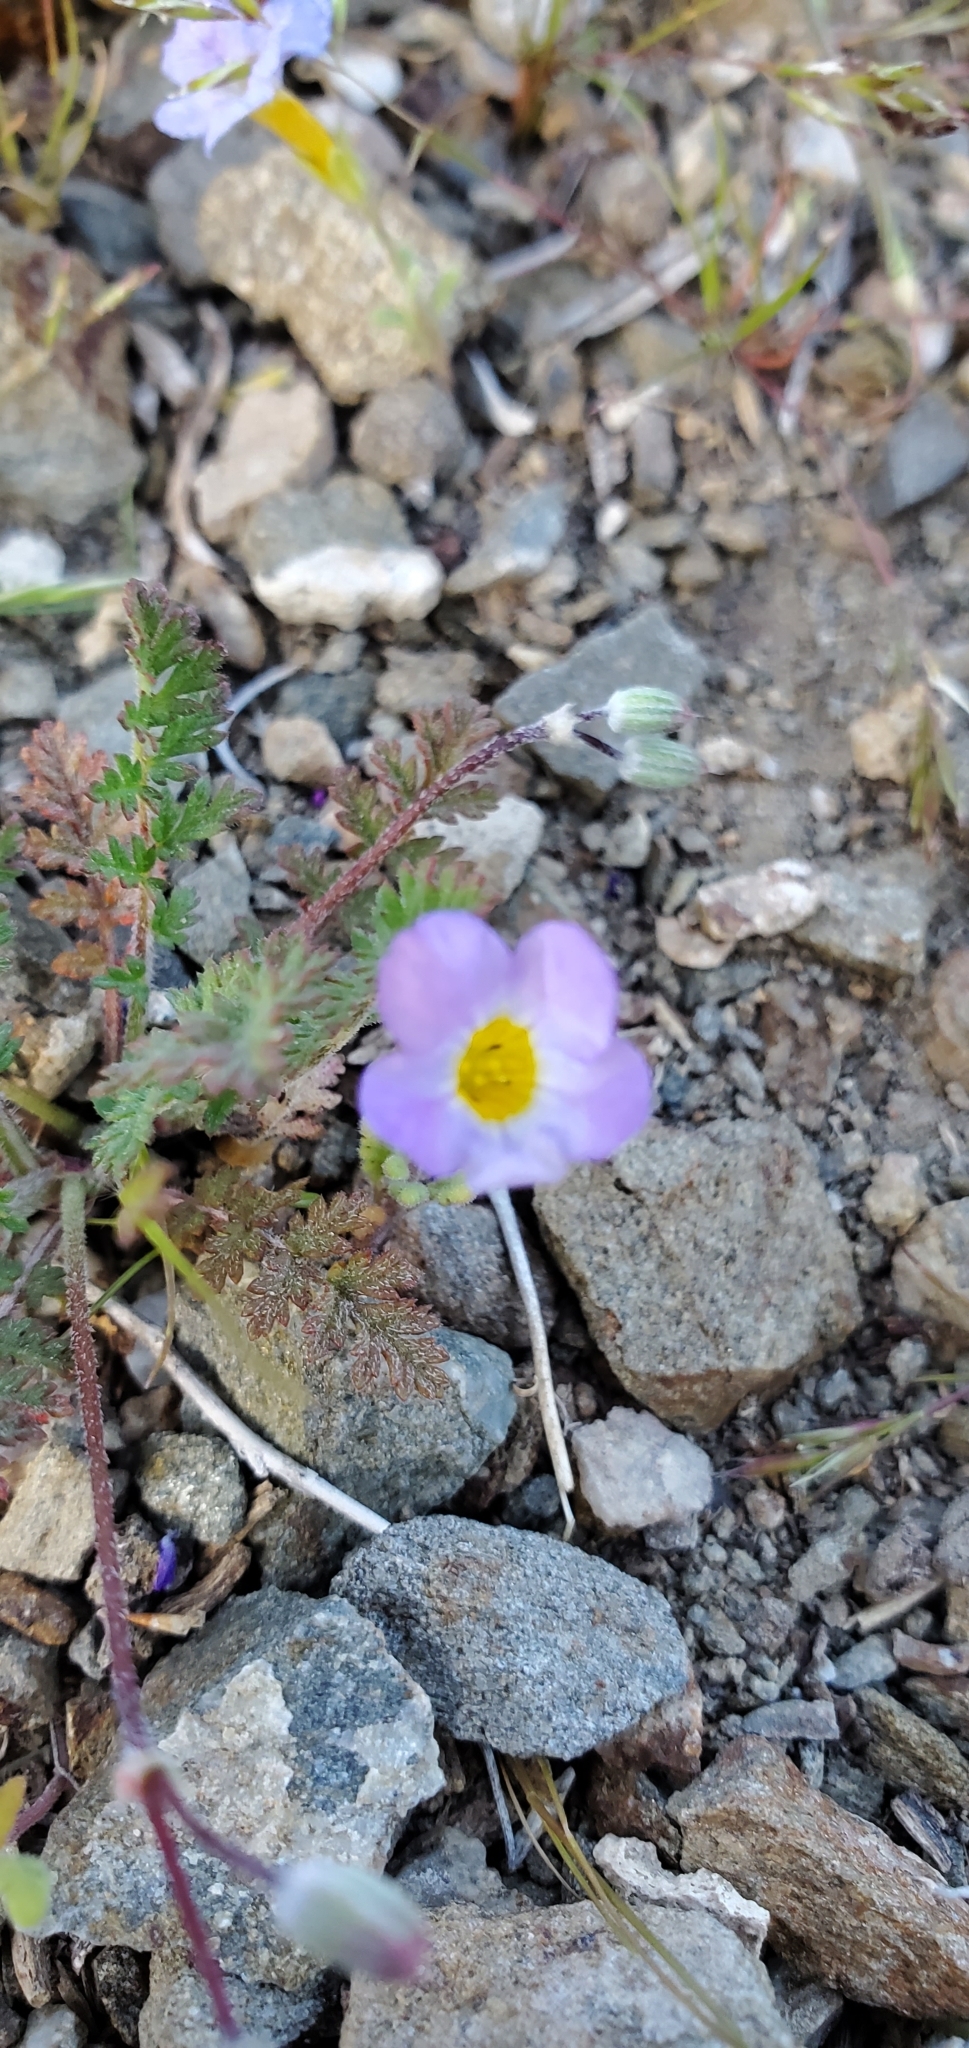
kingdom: Plantae
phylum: Tracheophyta
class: Magnoliopsida
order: Boraginales
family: Hydrophyllaceae
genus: Phacelia
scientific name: Phacelia fremontii
